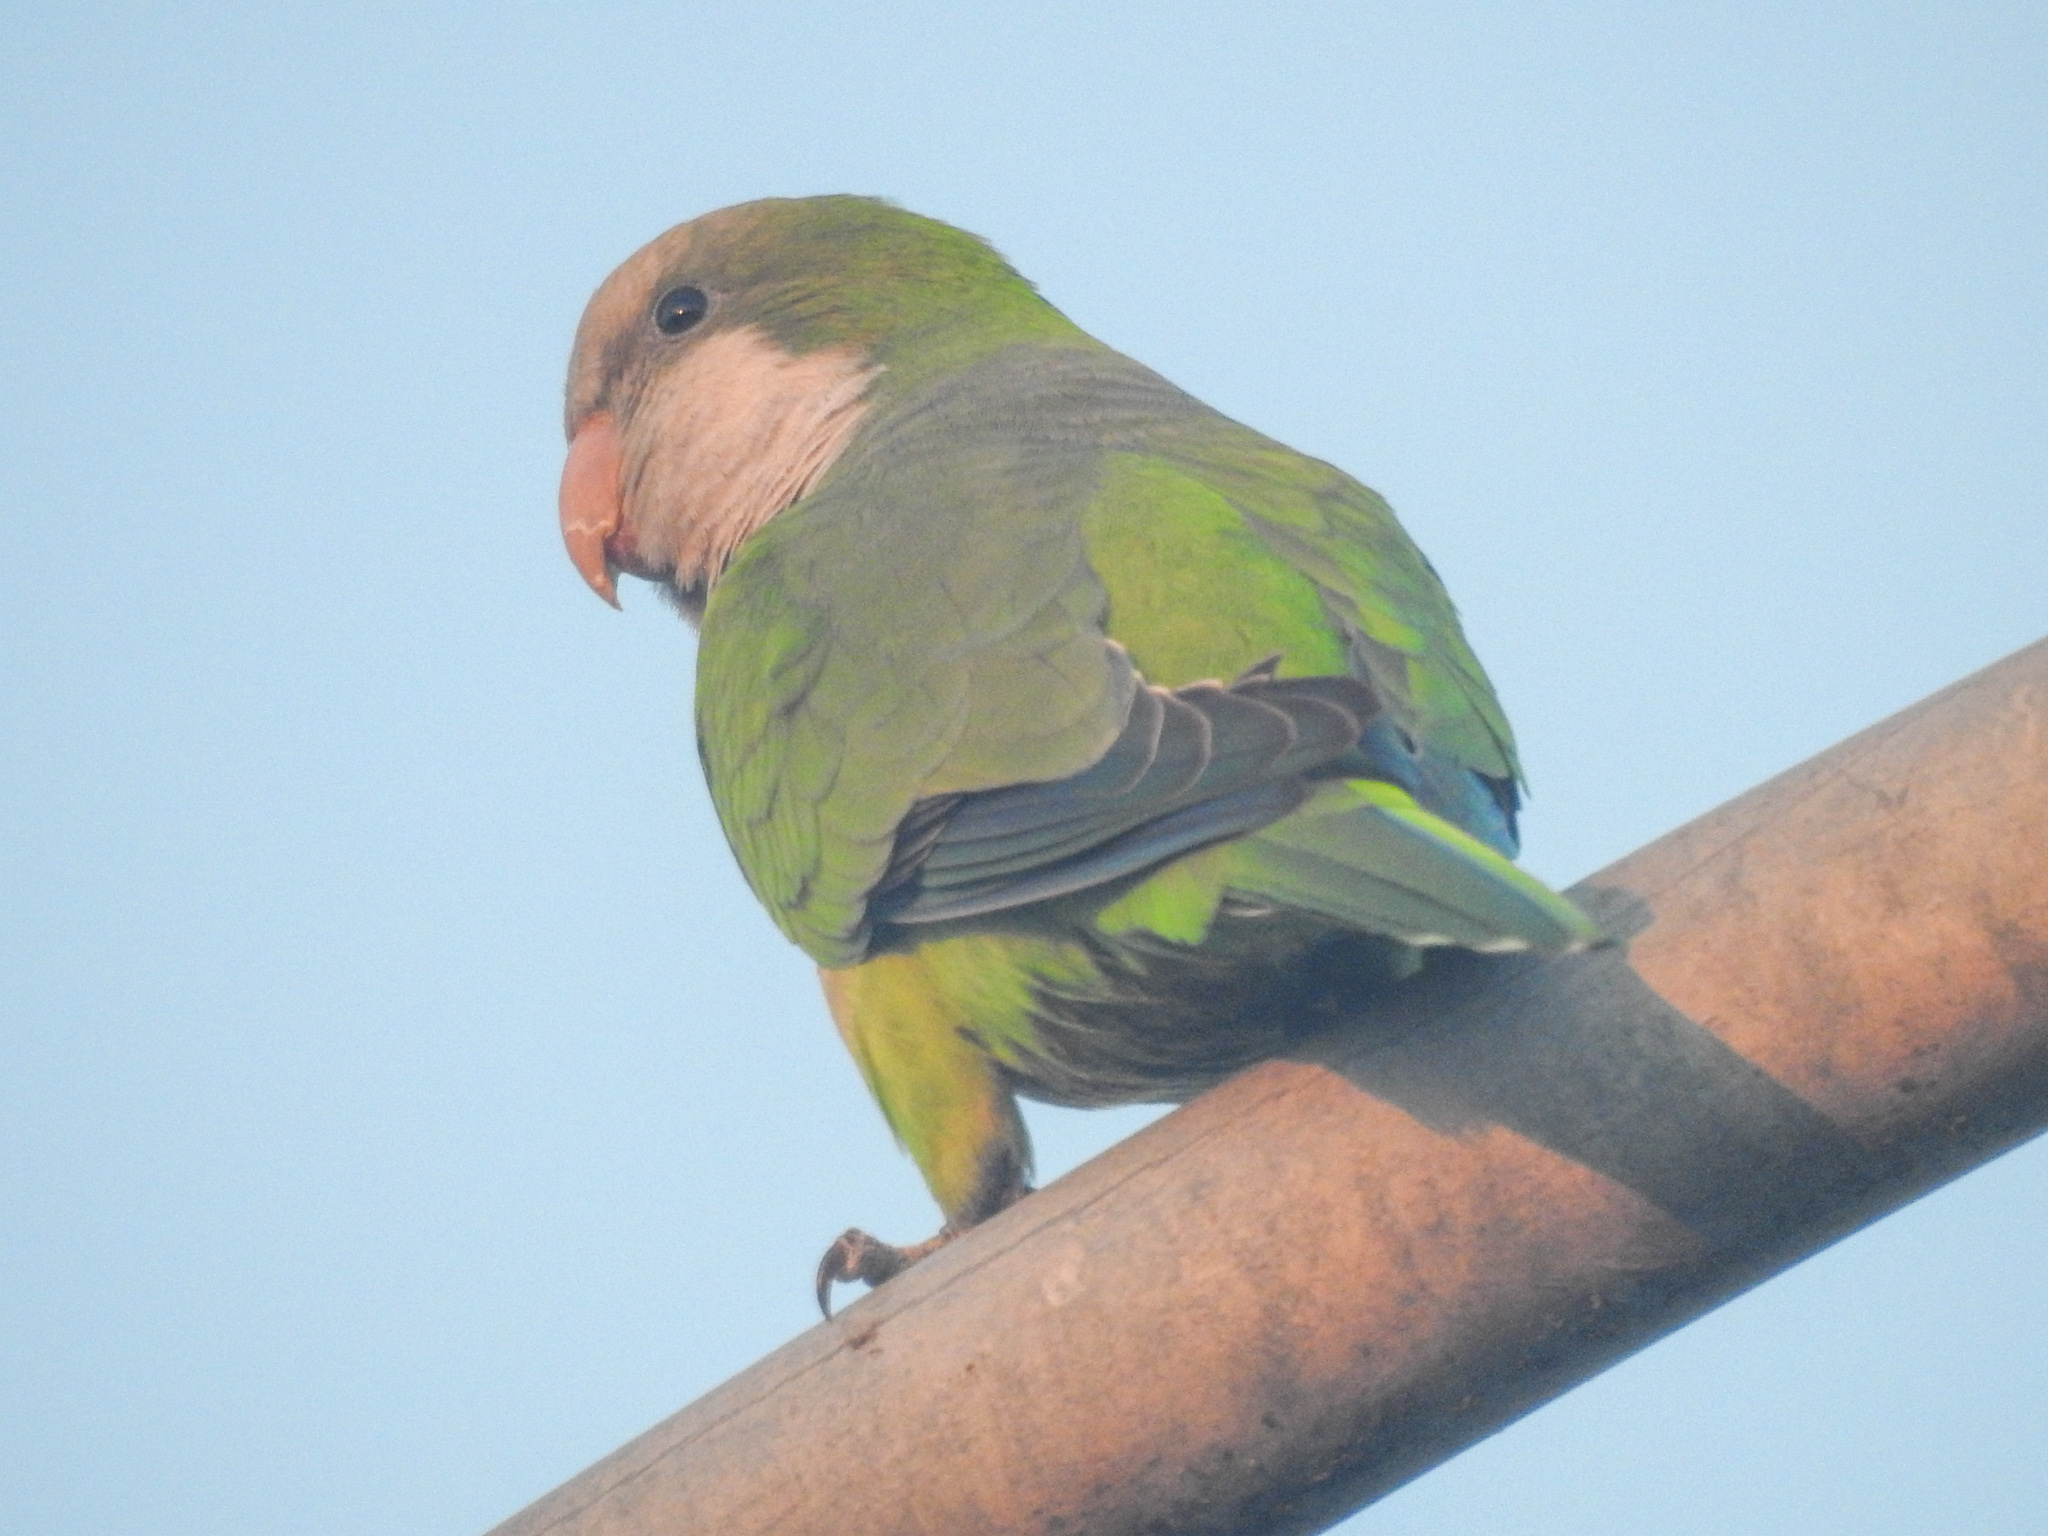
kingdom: Animalia
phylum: Chordata
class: Aves
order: Psittaciformes
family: Psittacidae
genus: Myiopsitta
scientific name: Myiopsitta monachus
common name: Monk parakeet
